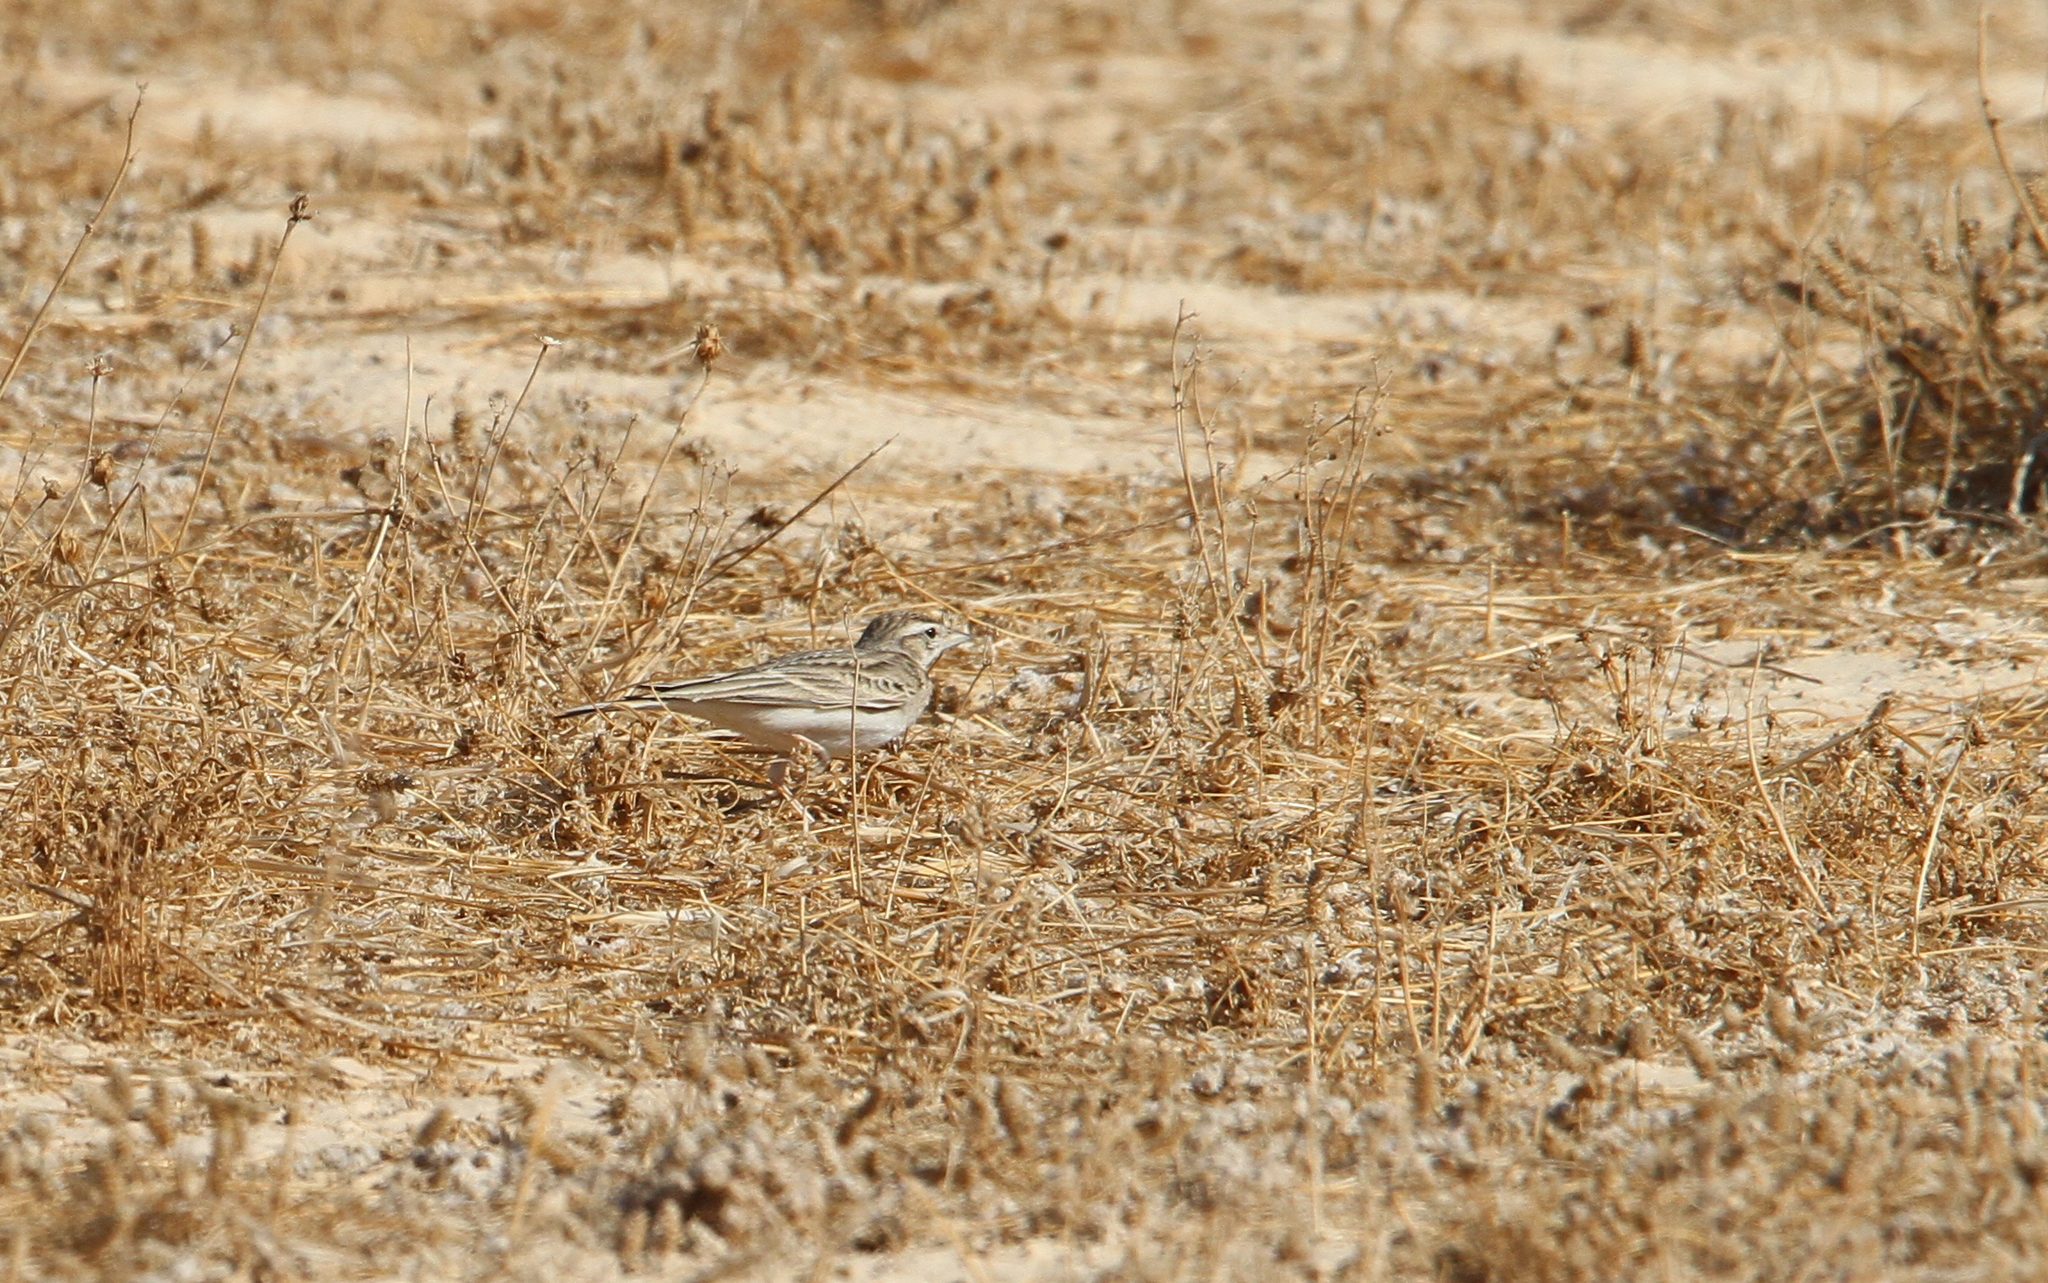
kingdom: Animalia
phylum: Chordata
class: Aves
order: Passeriformes
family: Alaudidae
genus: Calandrella
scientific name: Calandrella brachydactyla
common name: Greater short-toed lark
